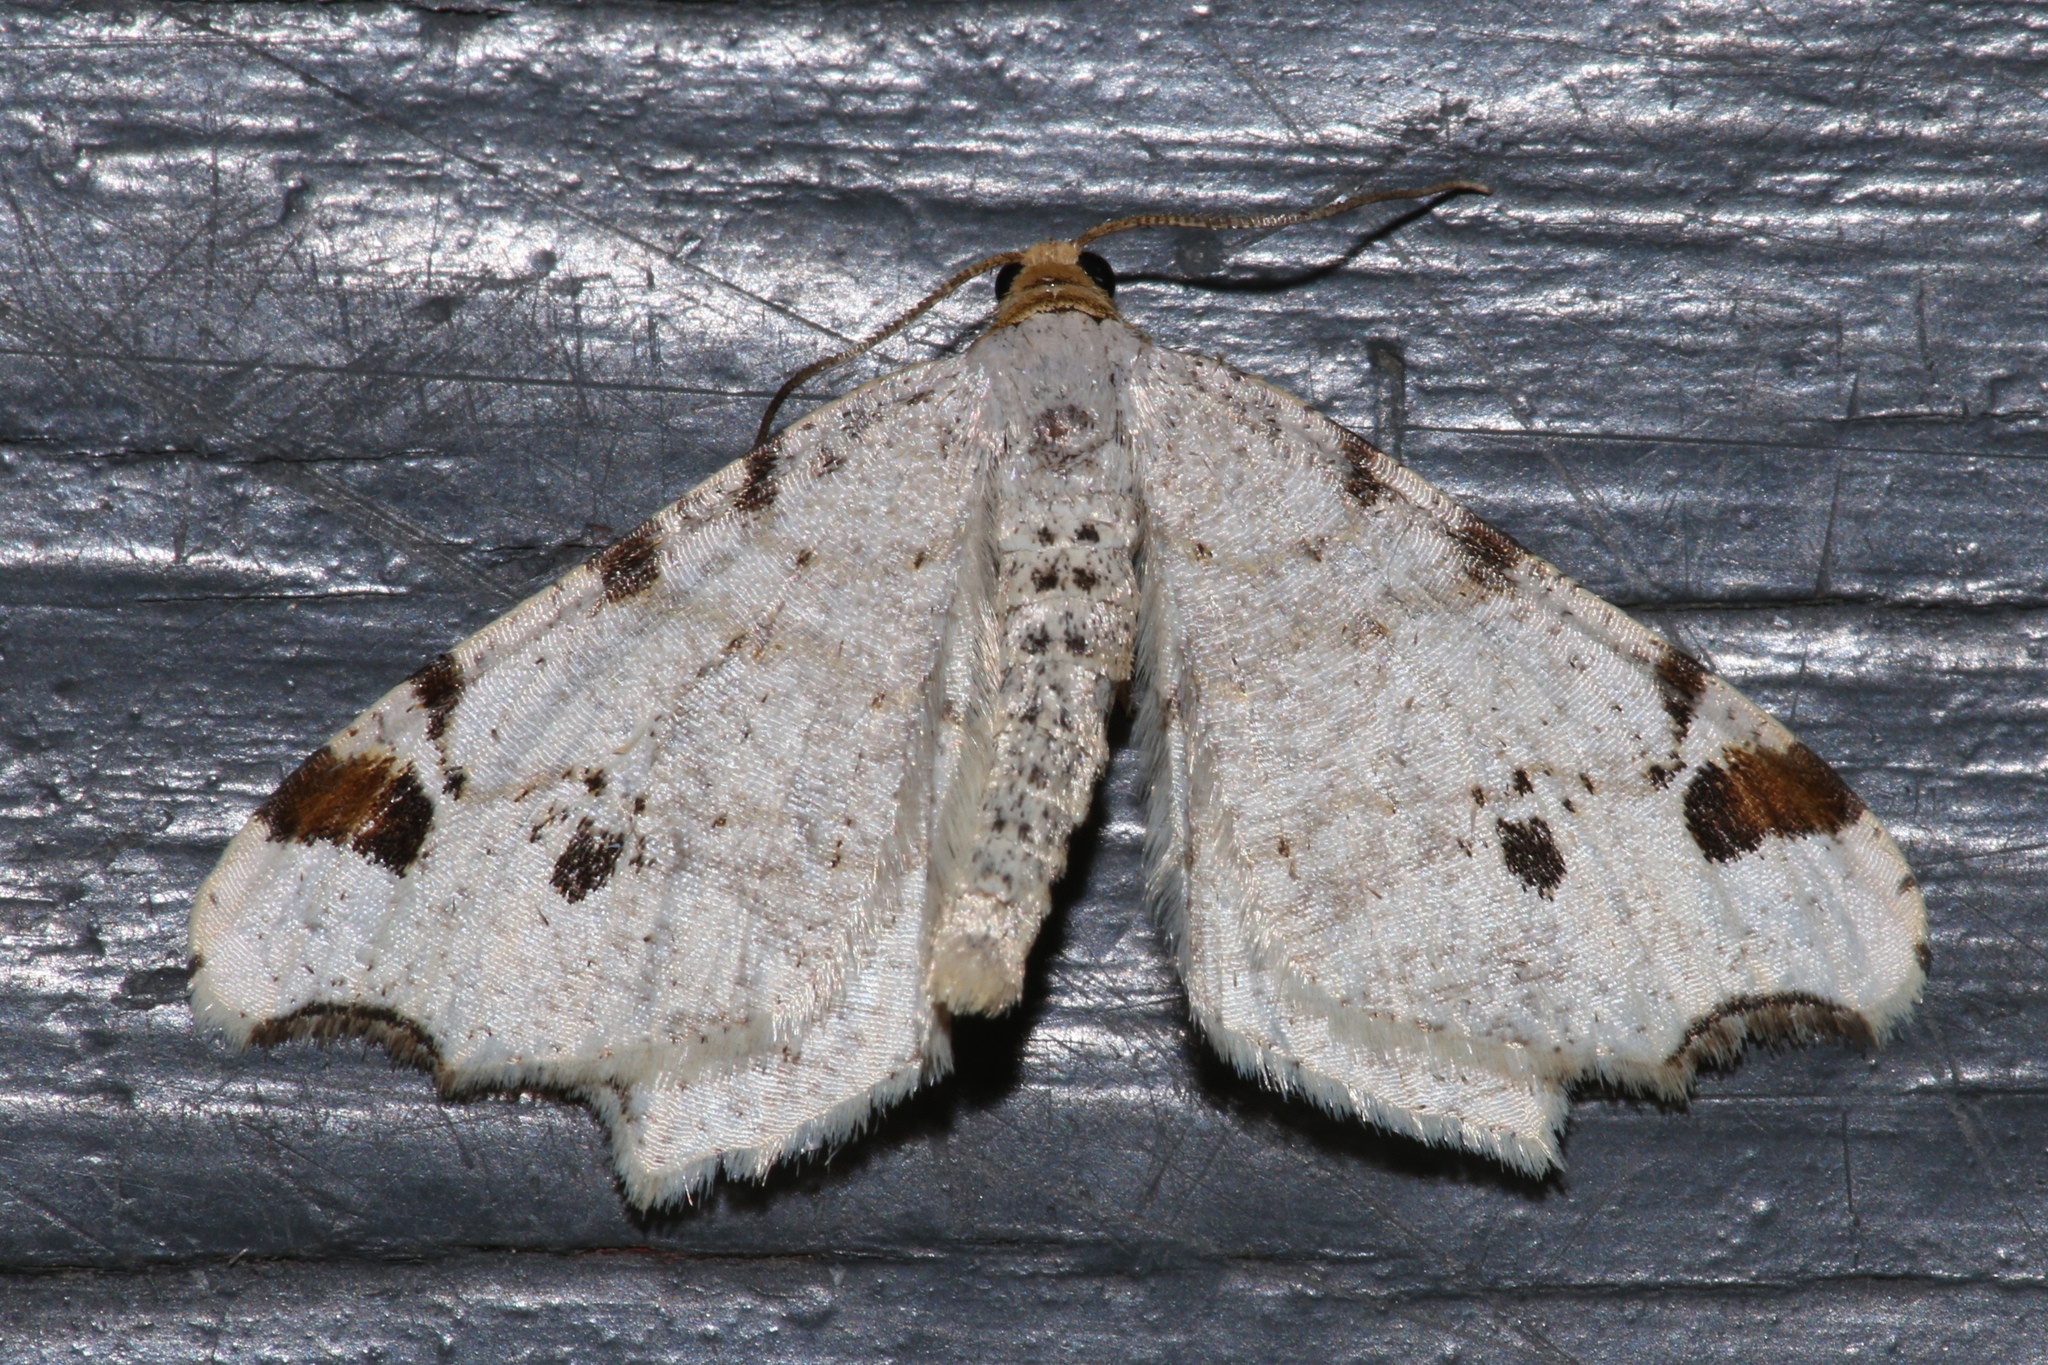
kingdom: Animalia
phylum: Arthropoda
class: Insecta
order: Lepidoptera
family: Geometridae
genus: Macaria
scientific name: Macaria ulsterata
